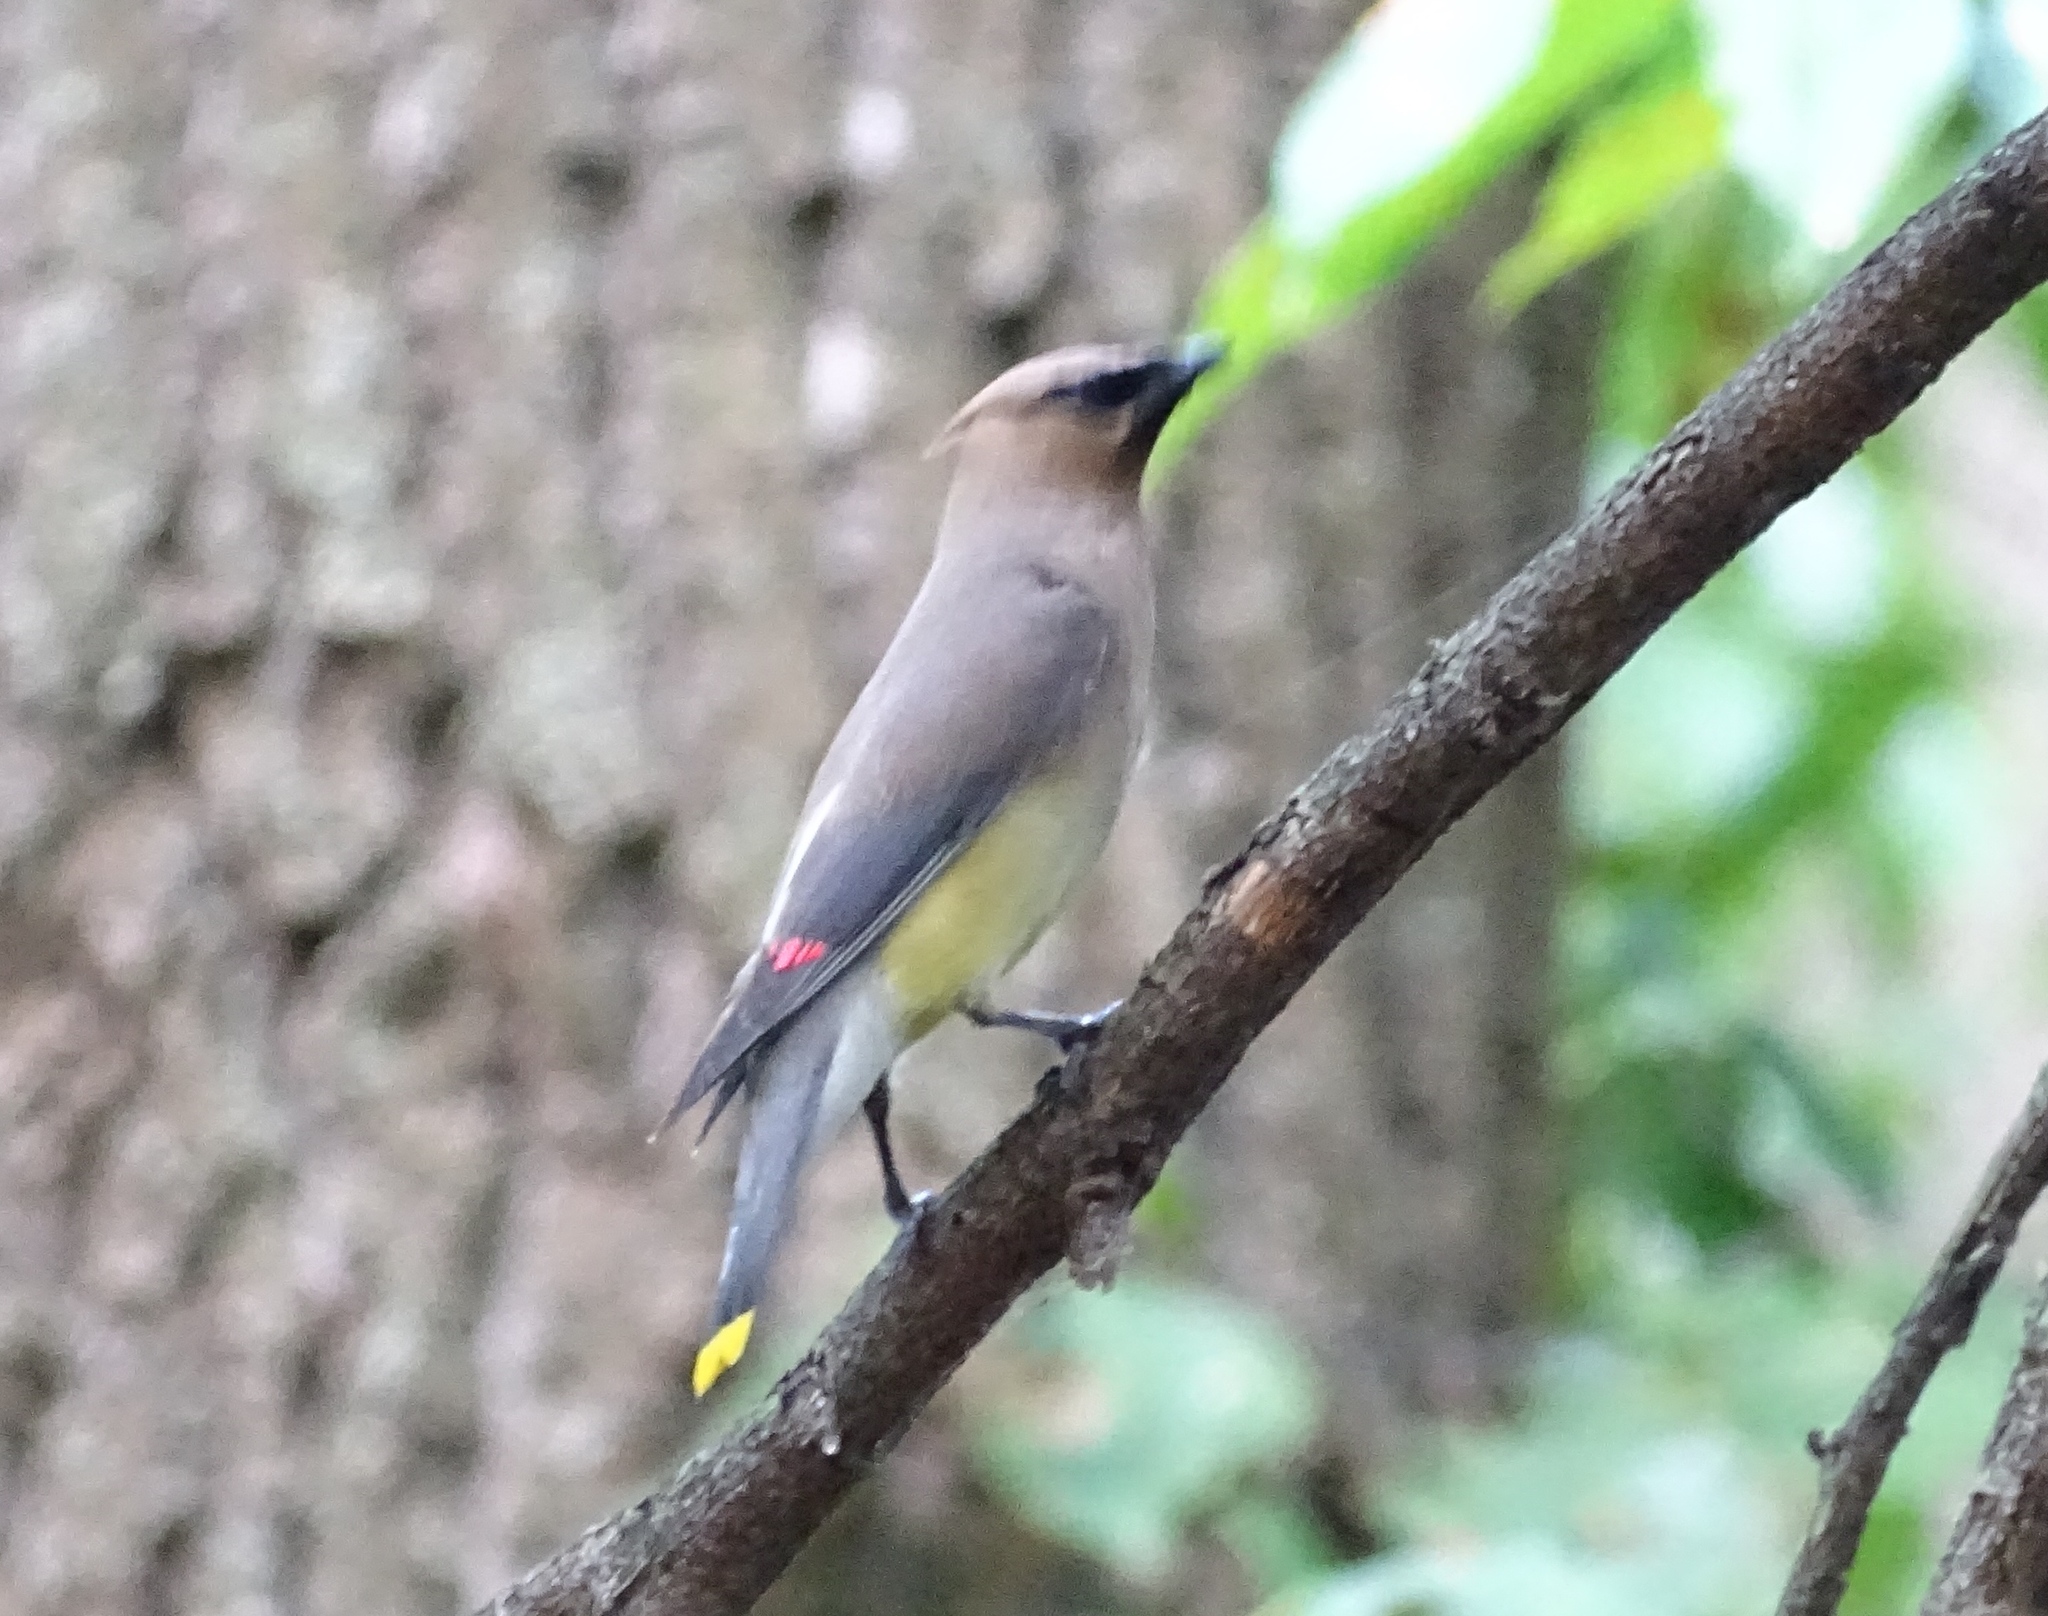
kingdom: Animalia
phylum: Chordata
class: Aves
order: Passeriformes
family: Bombycillidae
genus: Bombycilla
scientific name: Bombycilla cedrorum
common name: Cedar waxwing
